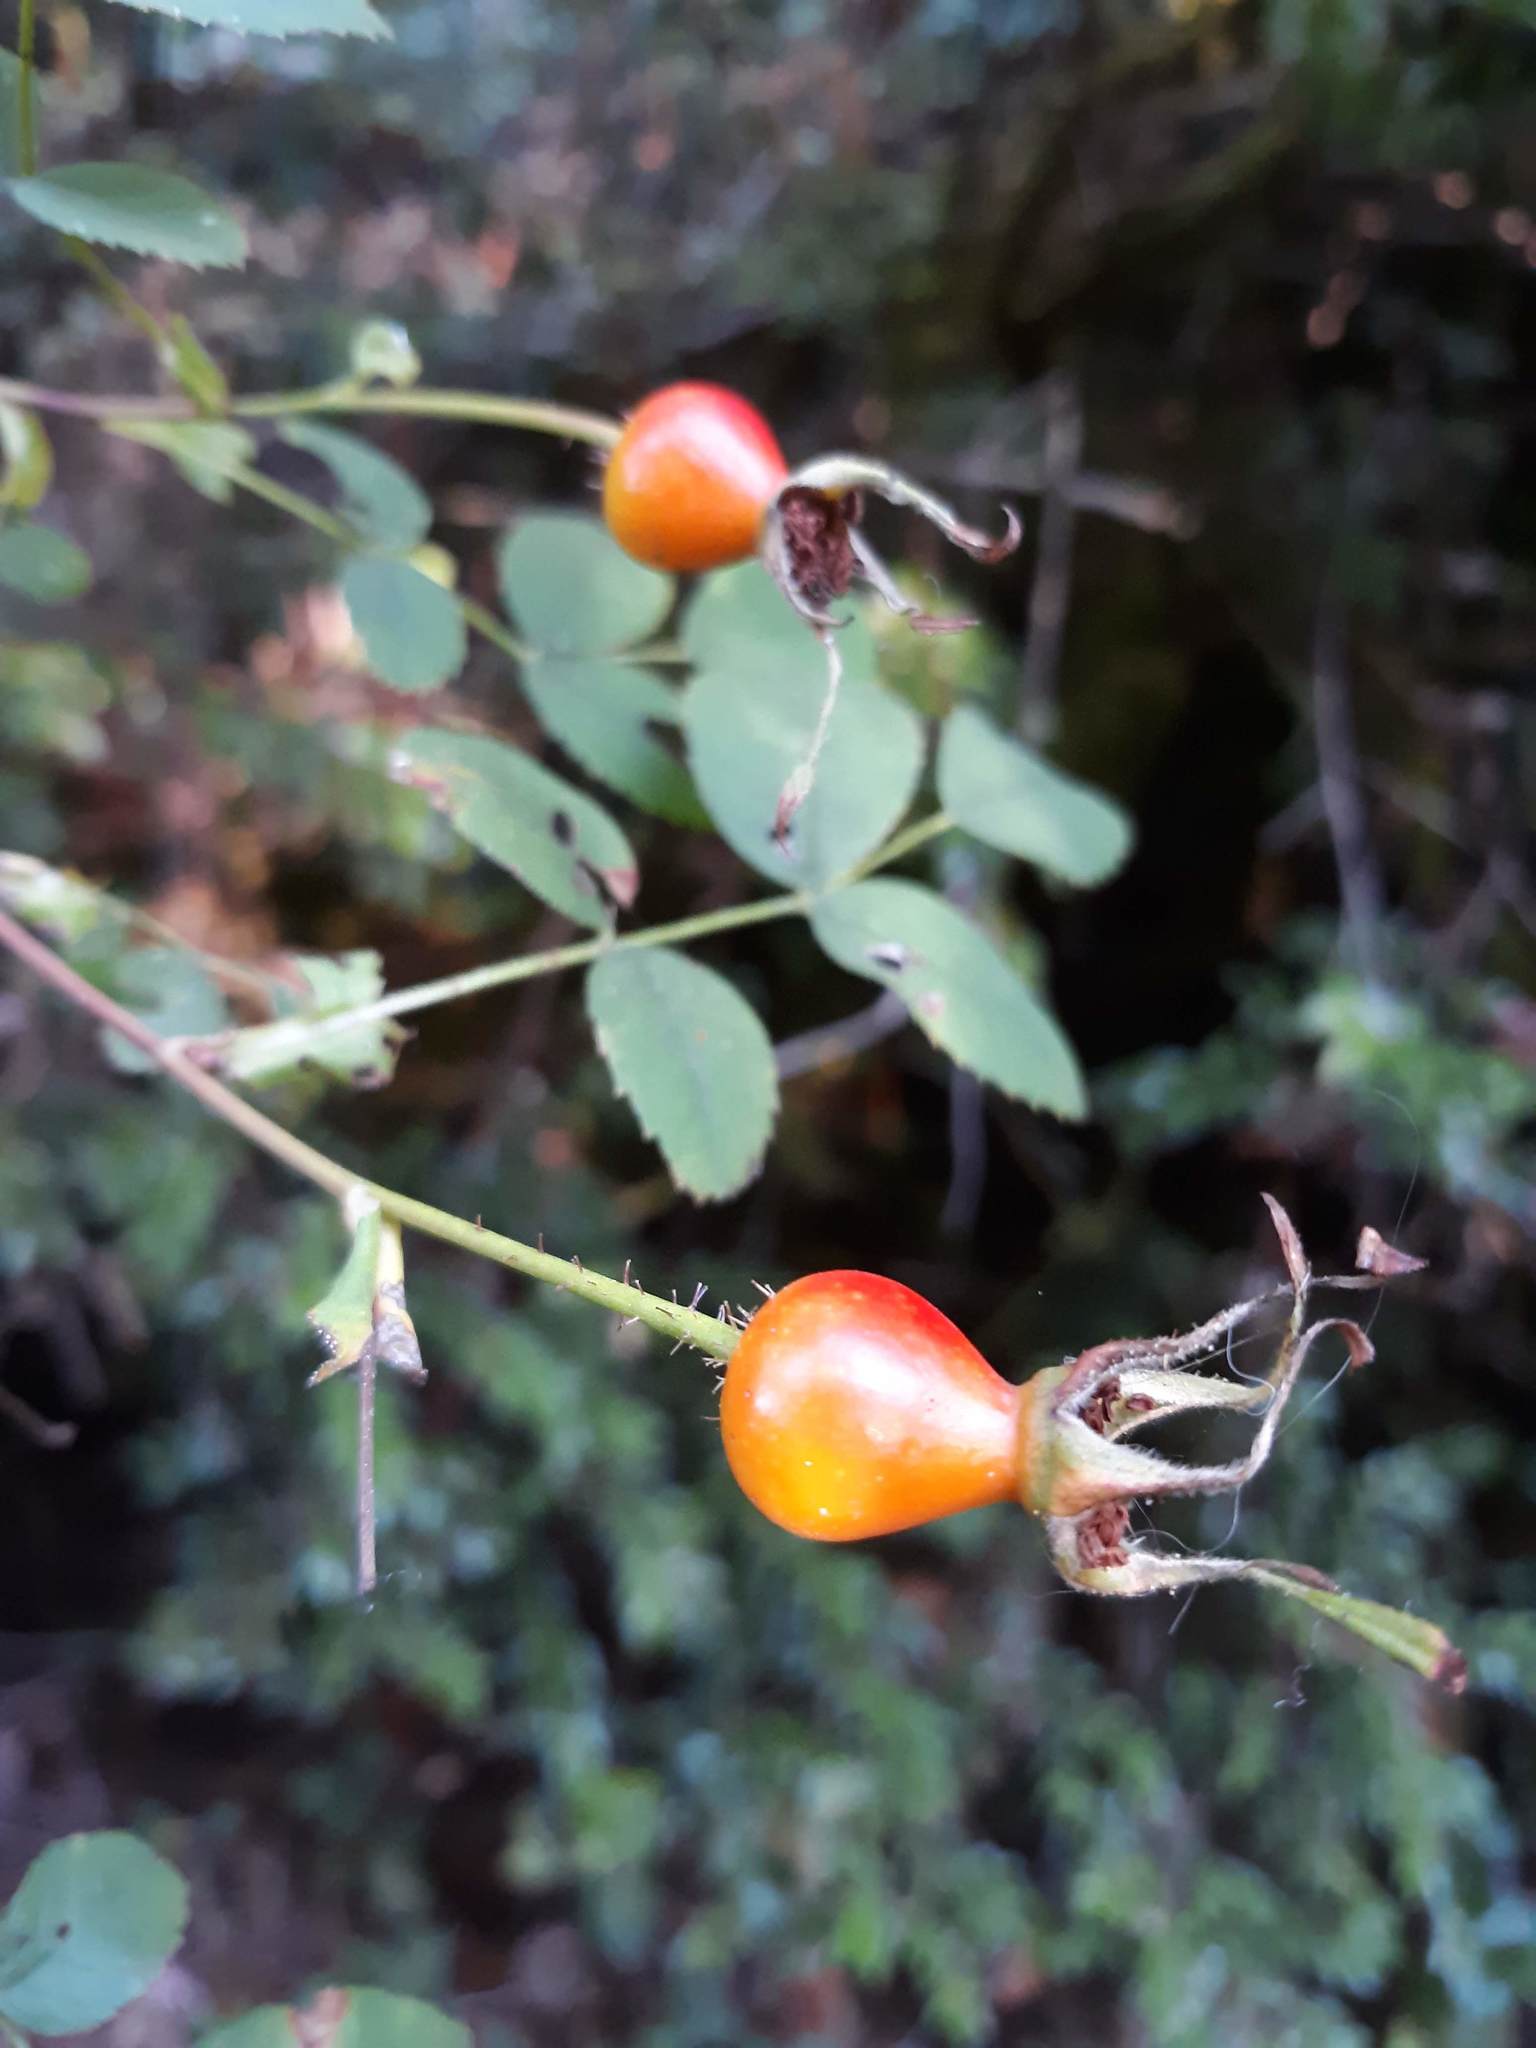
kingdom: Plantae
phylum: Tracheophyta
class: Magnoliopsida
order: Rosales
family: Rosaceae
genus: Rosa
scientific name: Rosa nutkana
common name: Nootka rose
